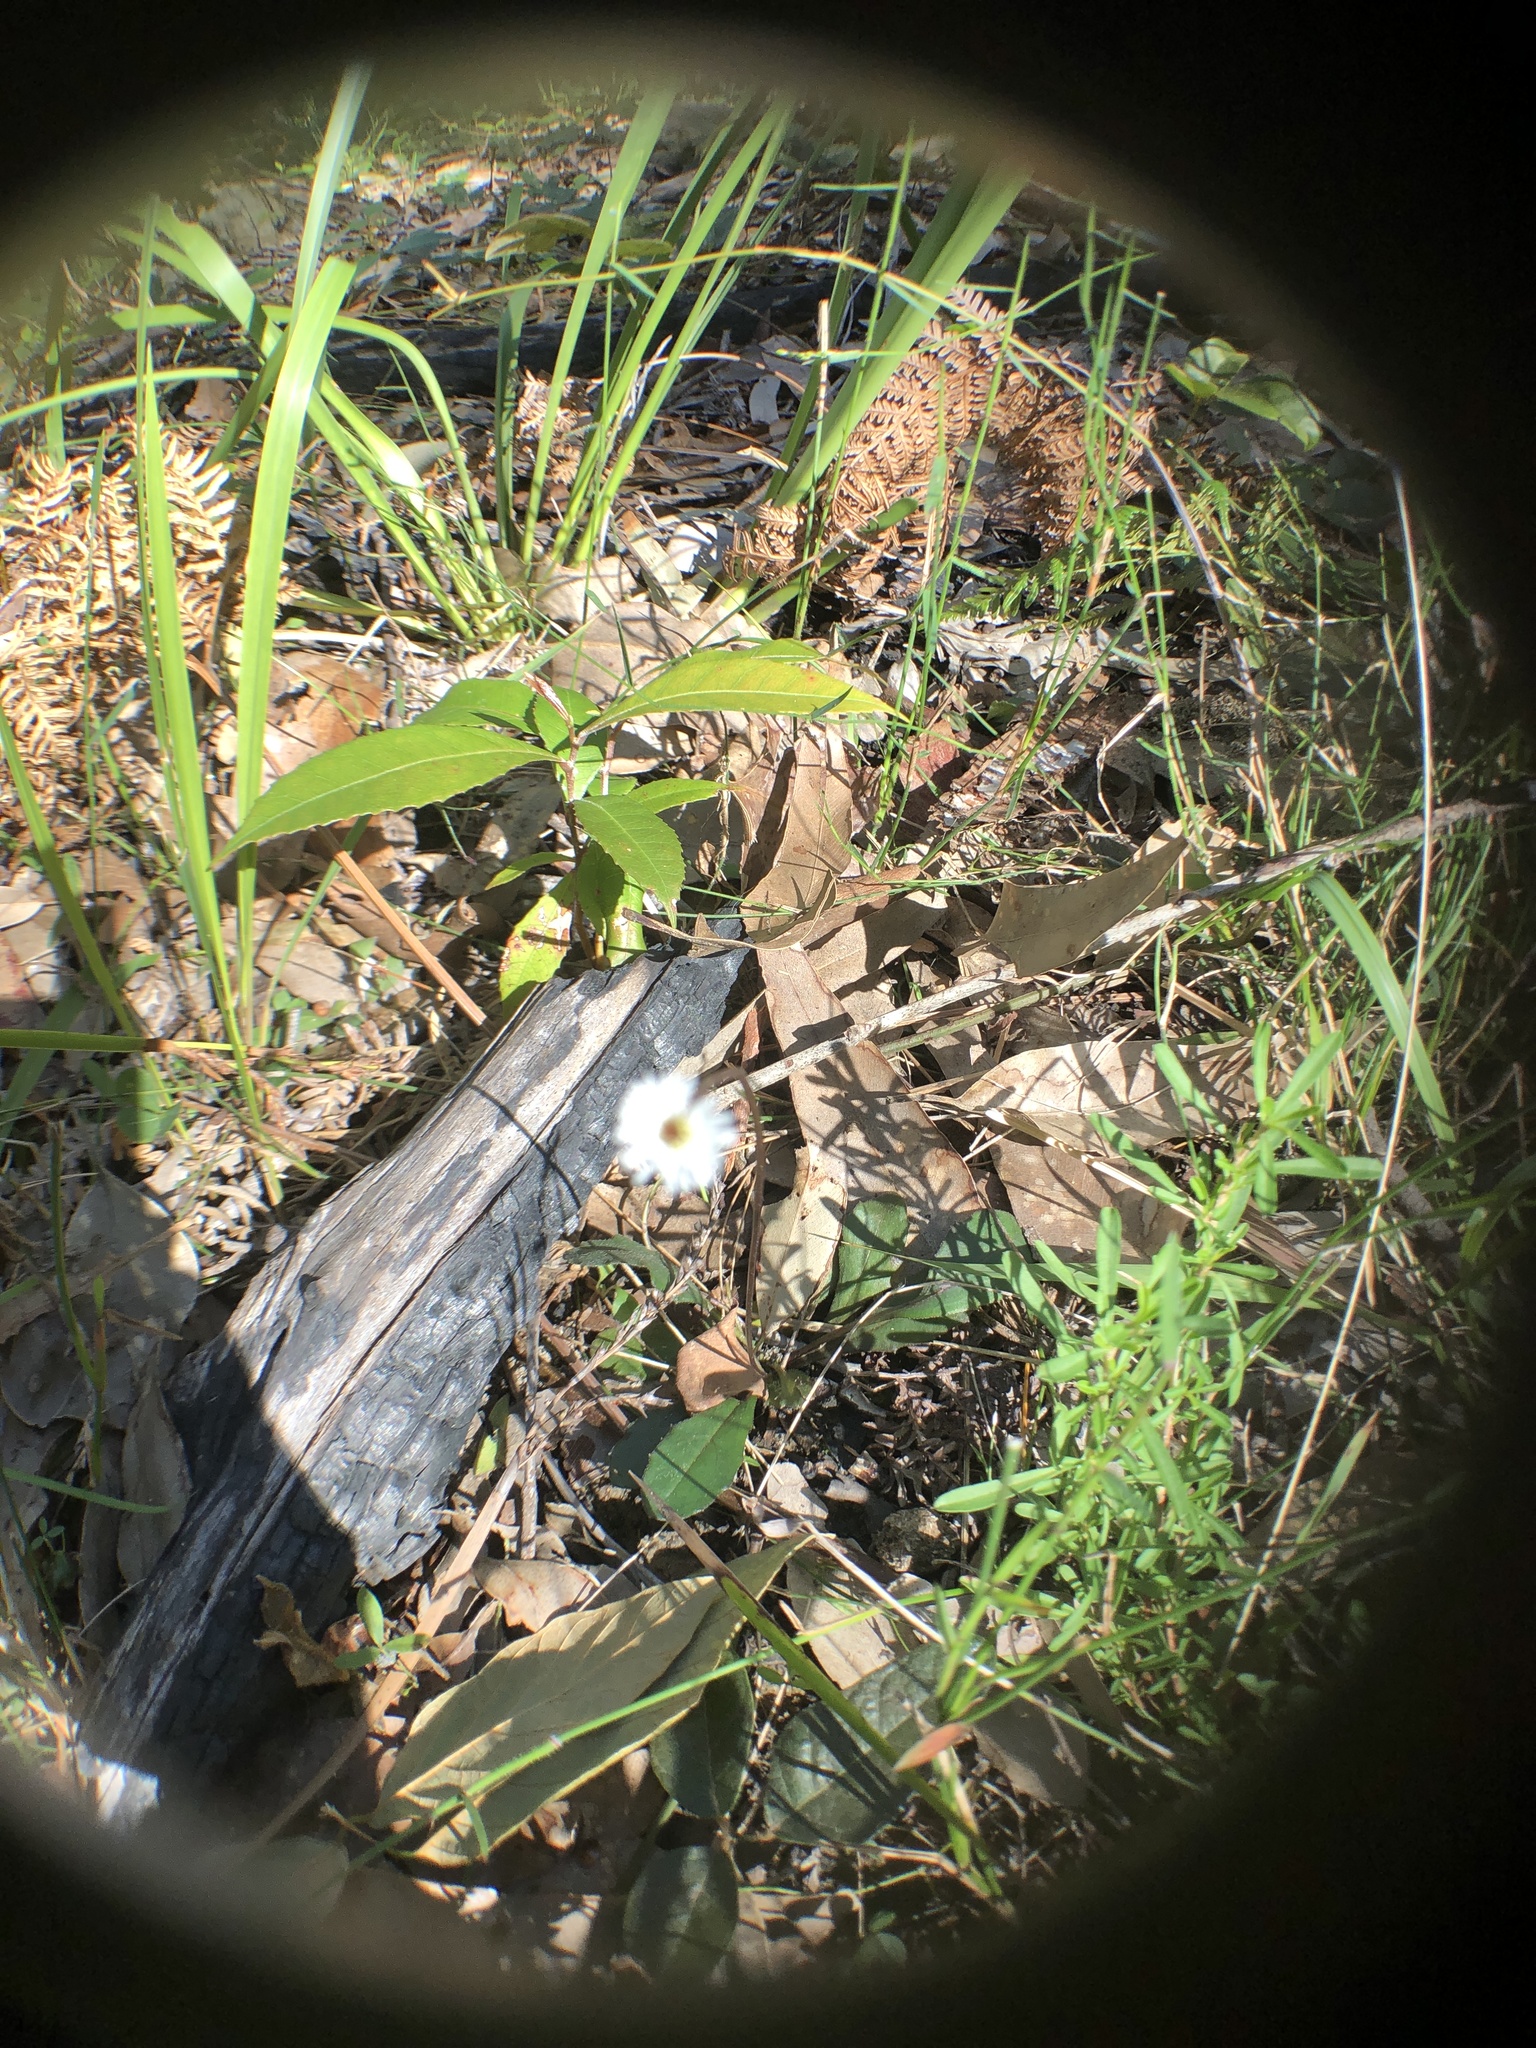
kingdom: Plantae
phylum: Tracheophyta
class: Magnoliopsida
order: Asterales
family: Asteraceae
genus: Lagenophora
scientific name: Lagenophora sublyrata ter
